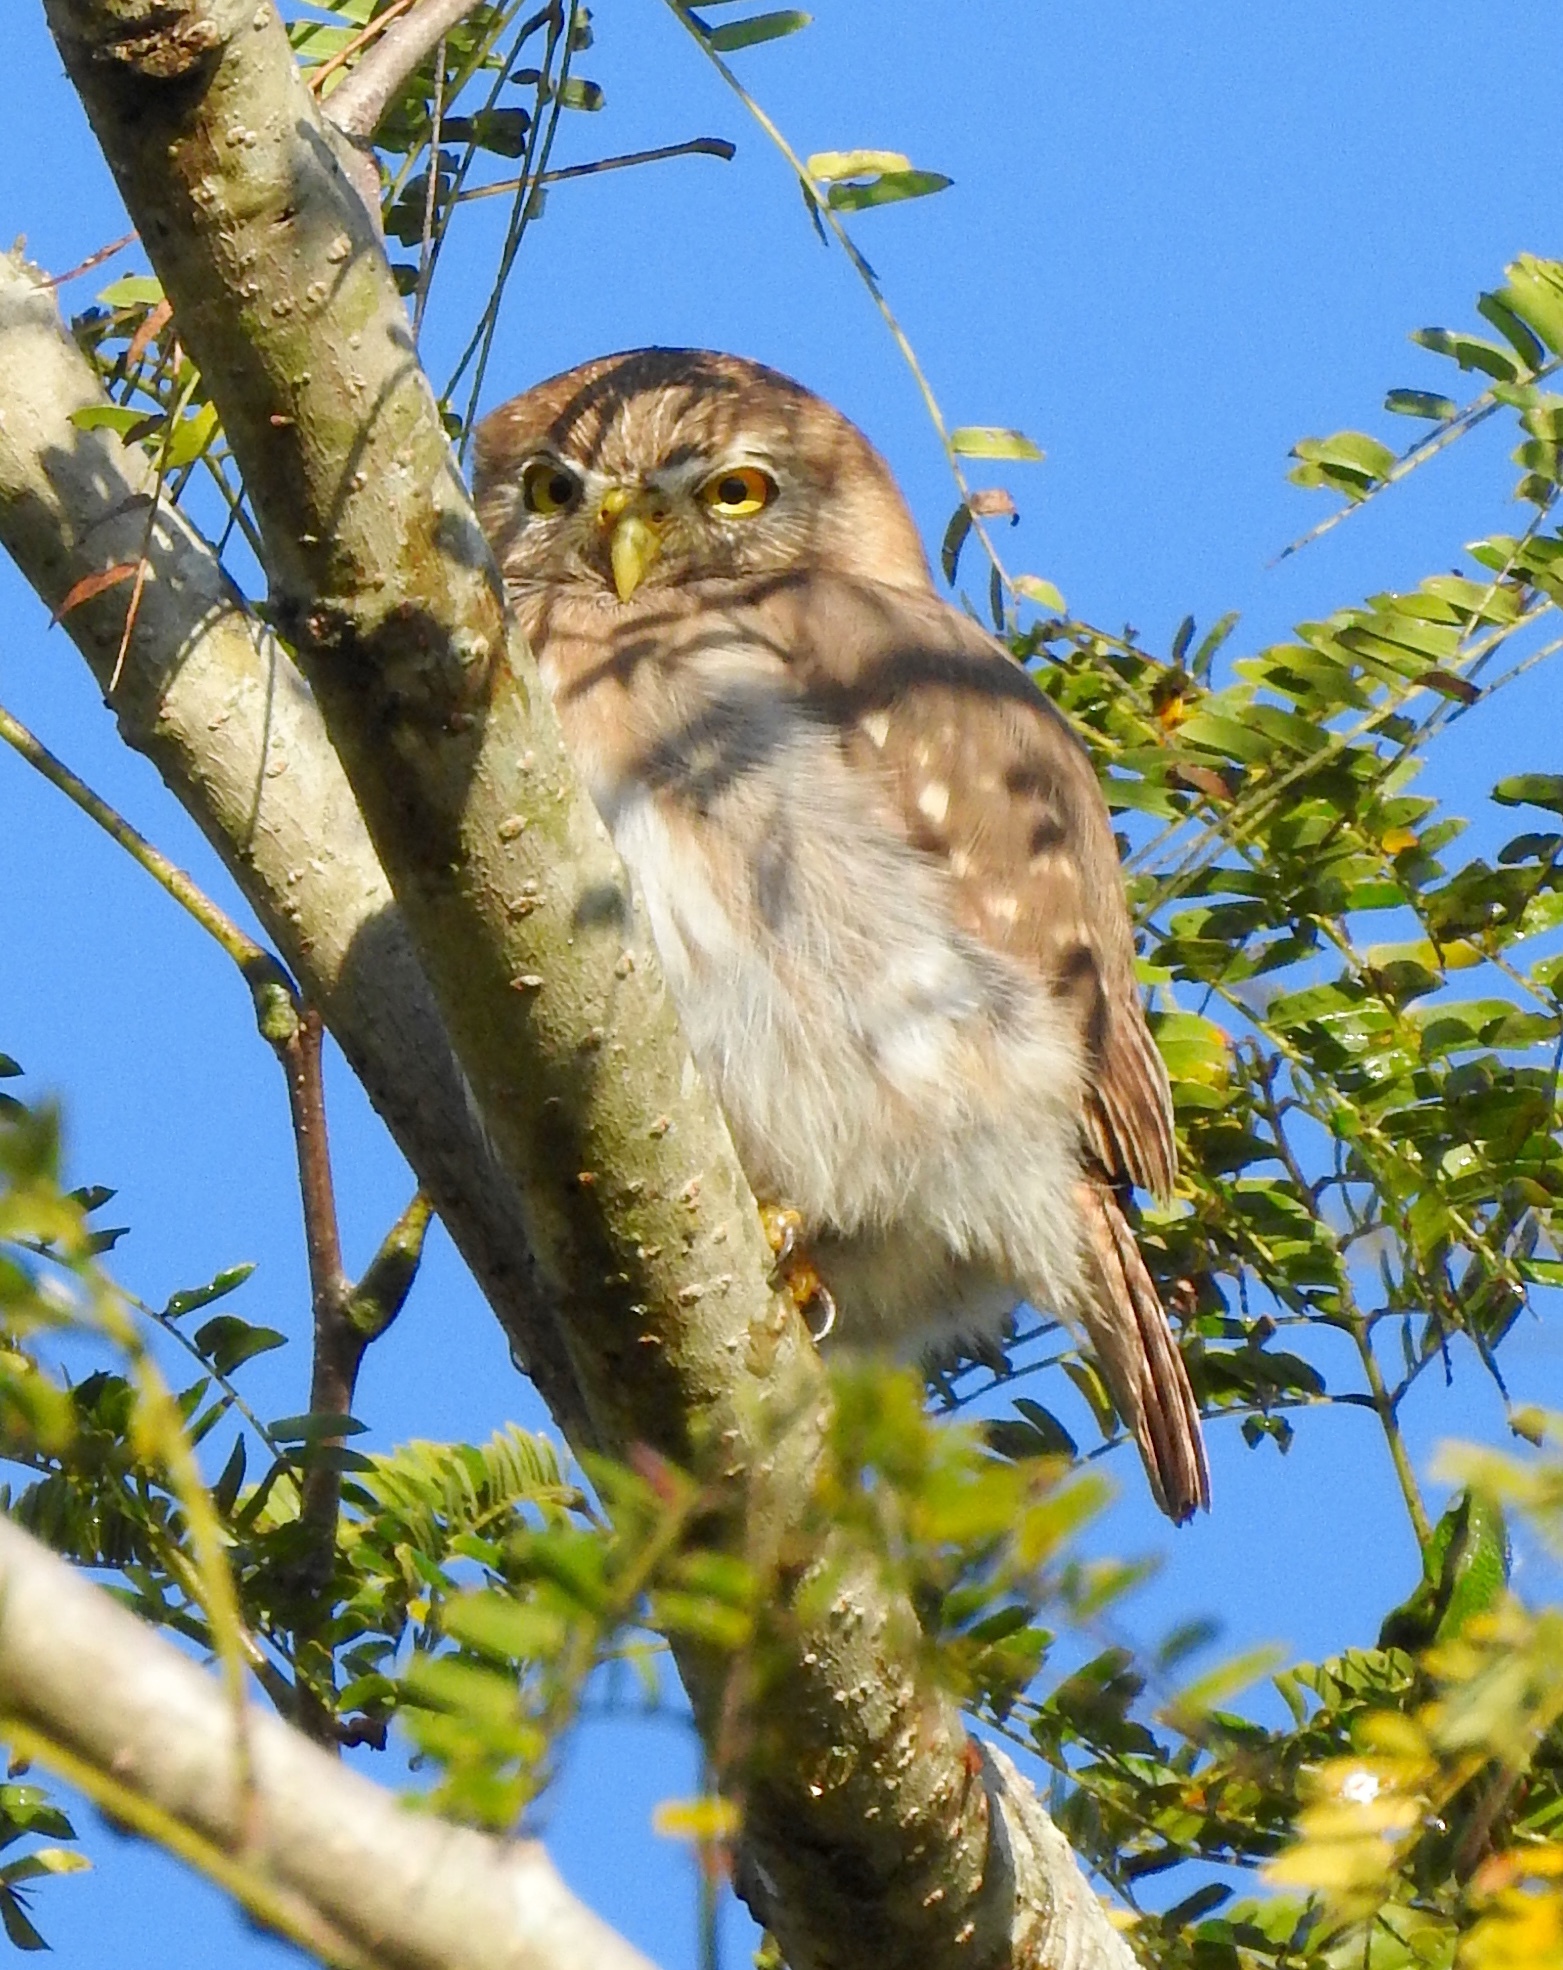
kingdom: Animalia
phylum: Chordata
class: Aves
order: Strigiformes
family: Strigidae
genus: Glaucidium
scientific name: Glaucidium brasilianum
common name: Ferruginous pygmy-owl
